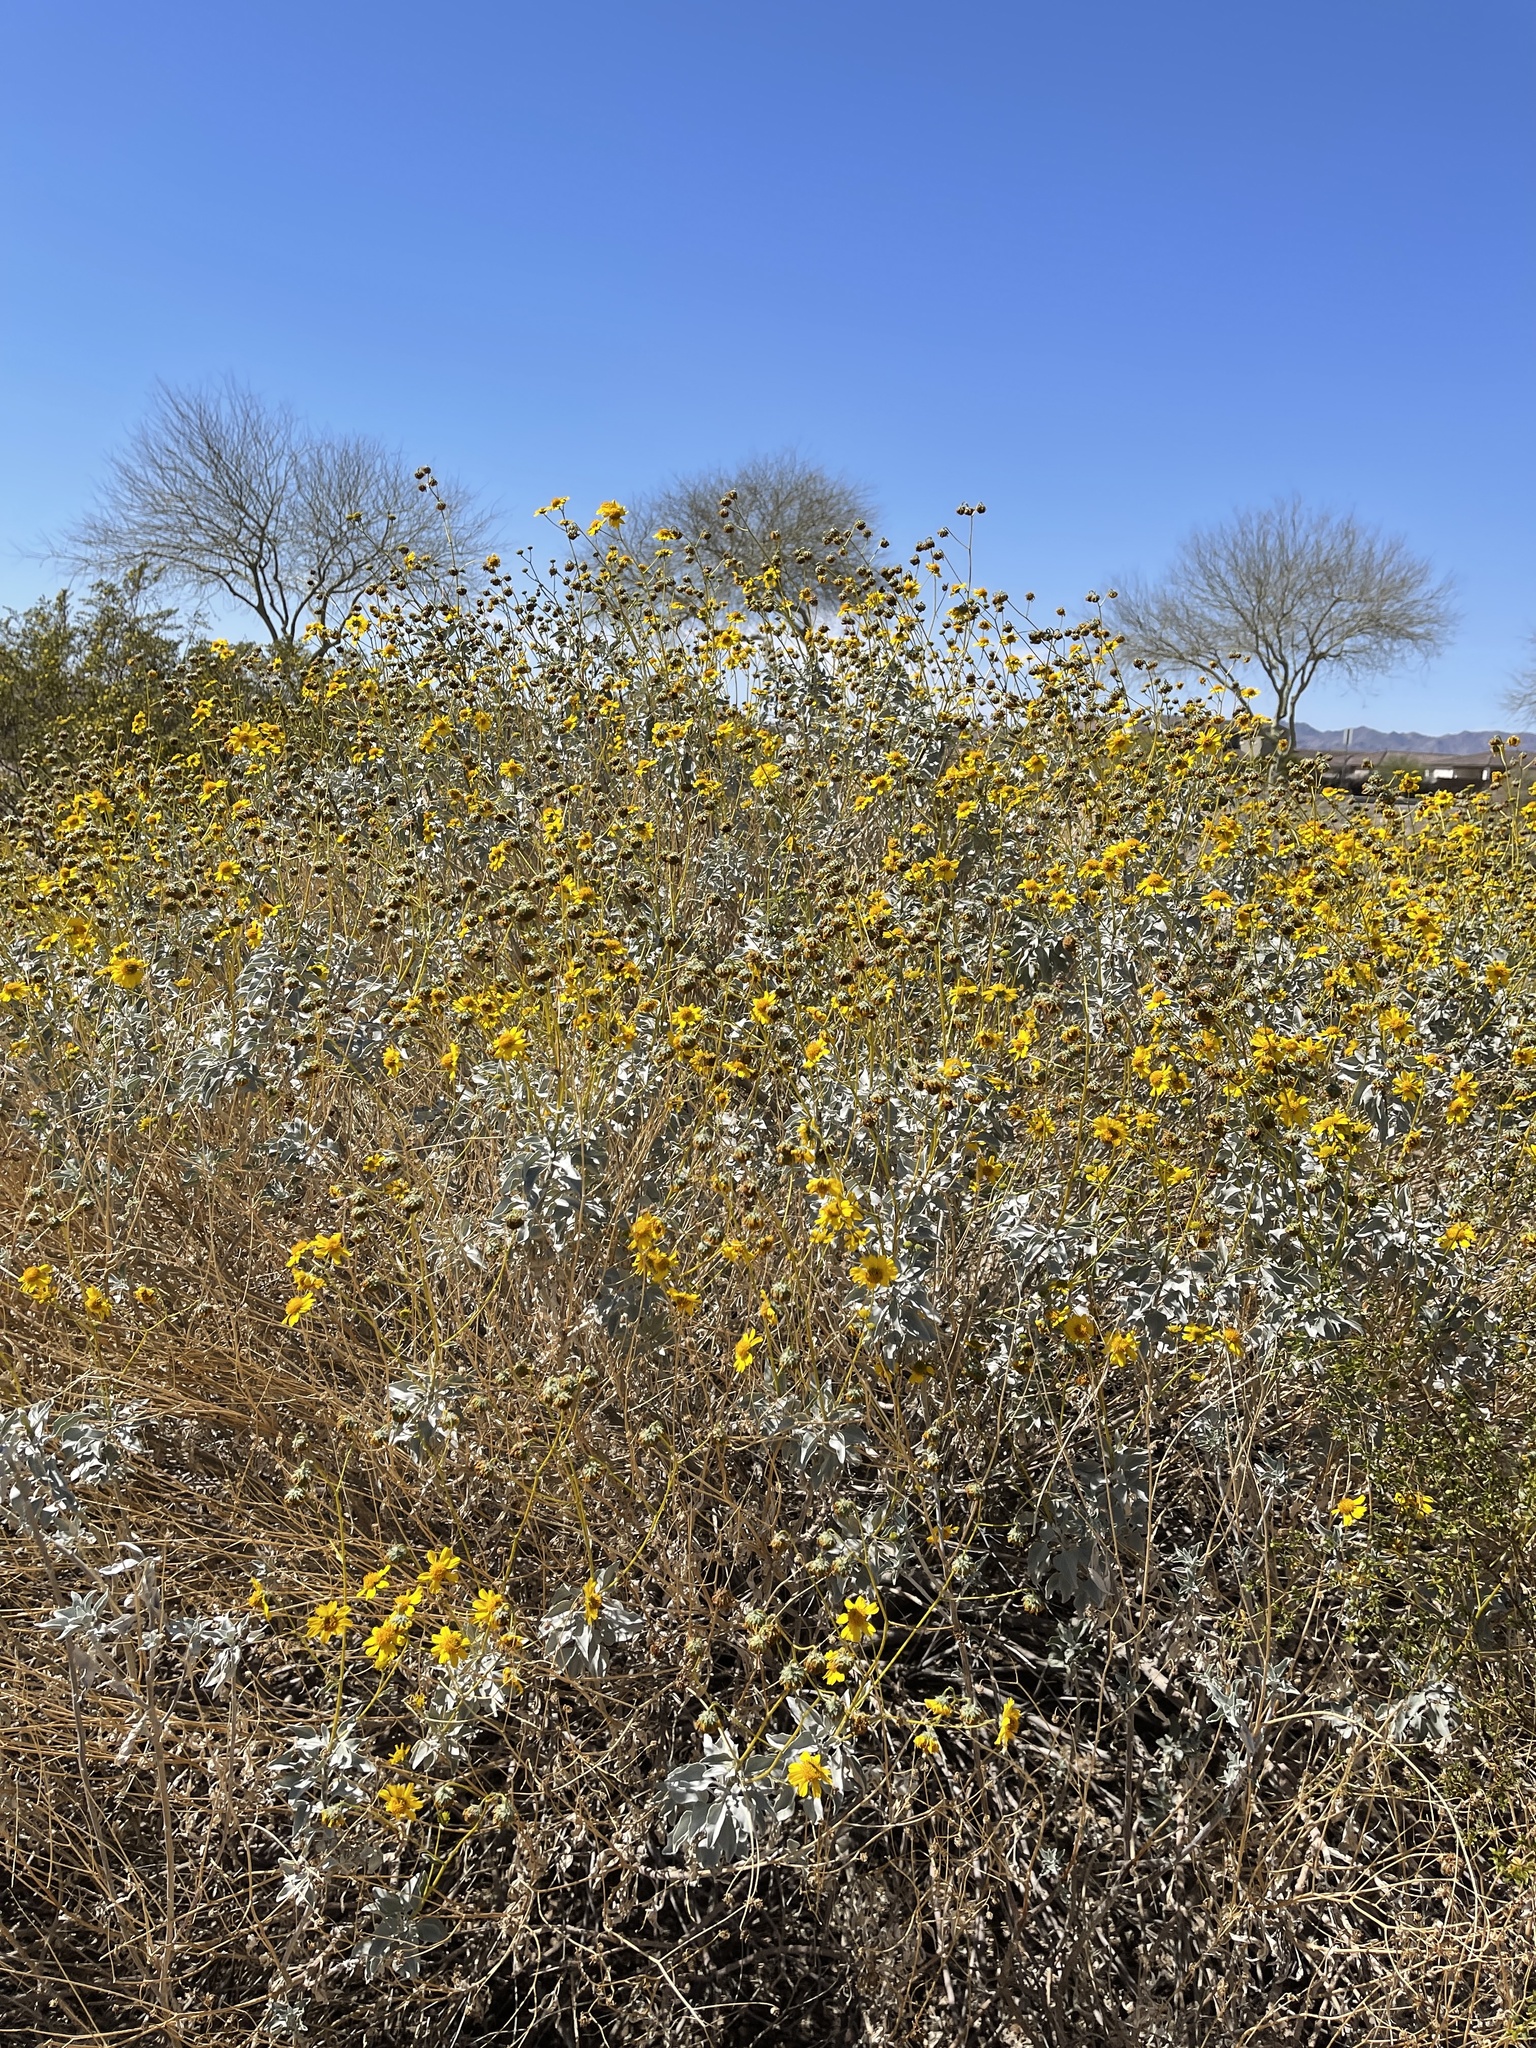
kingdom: Plantae
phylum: Tracheophyta
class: Magnoliopsida
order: Asterales
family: Asteraceae
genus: Encelia
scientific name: Encelia farinosa
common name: Brittlebush
